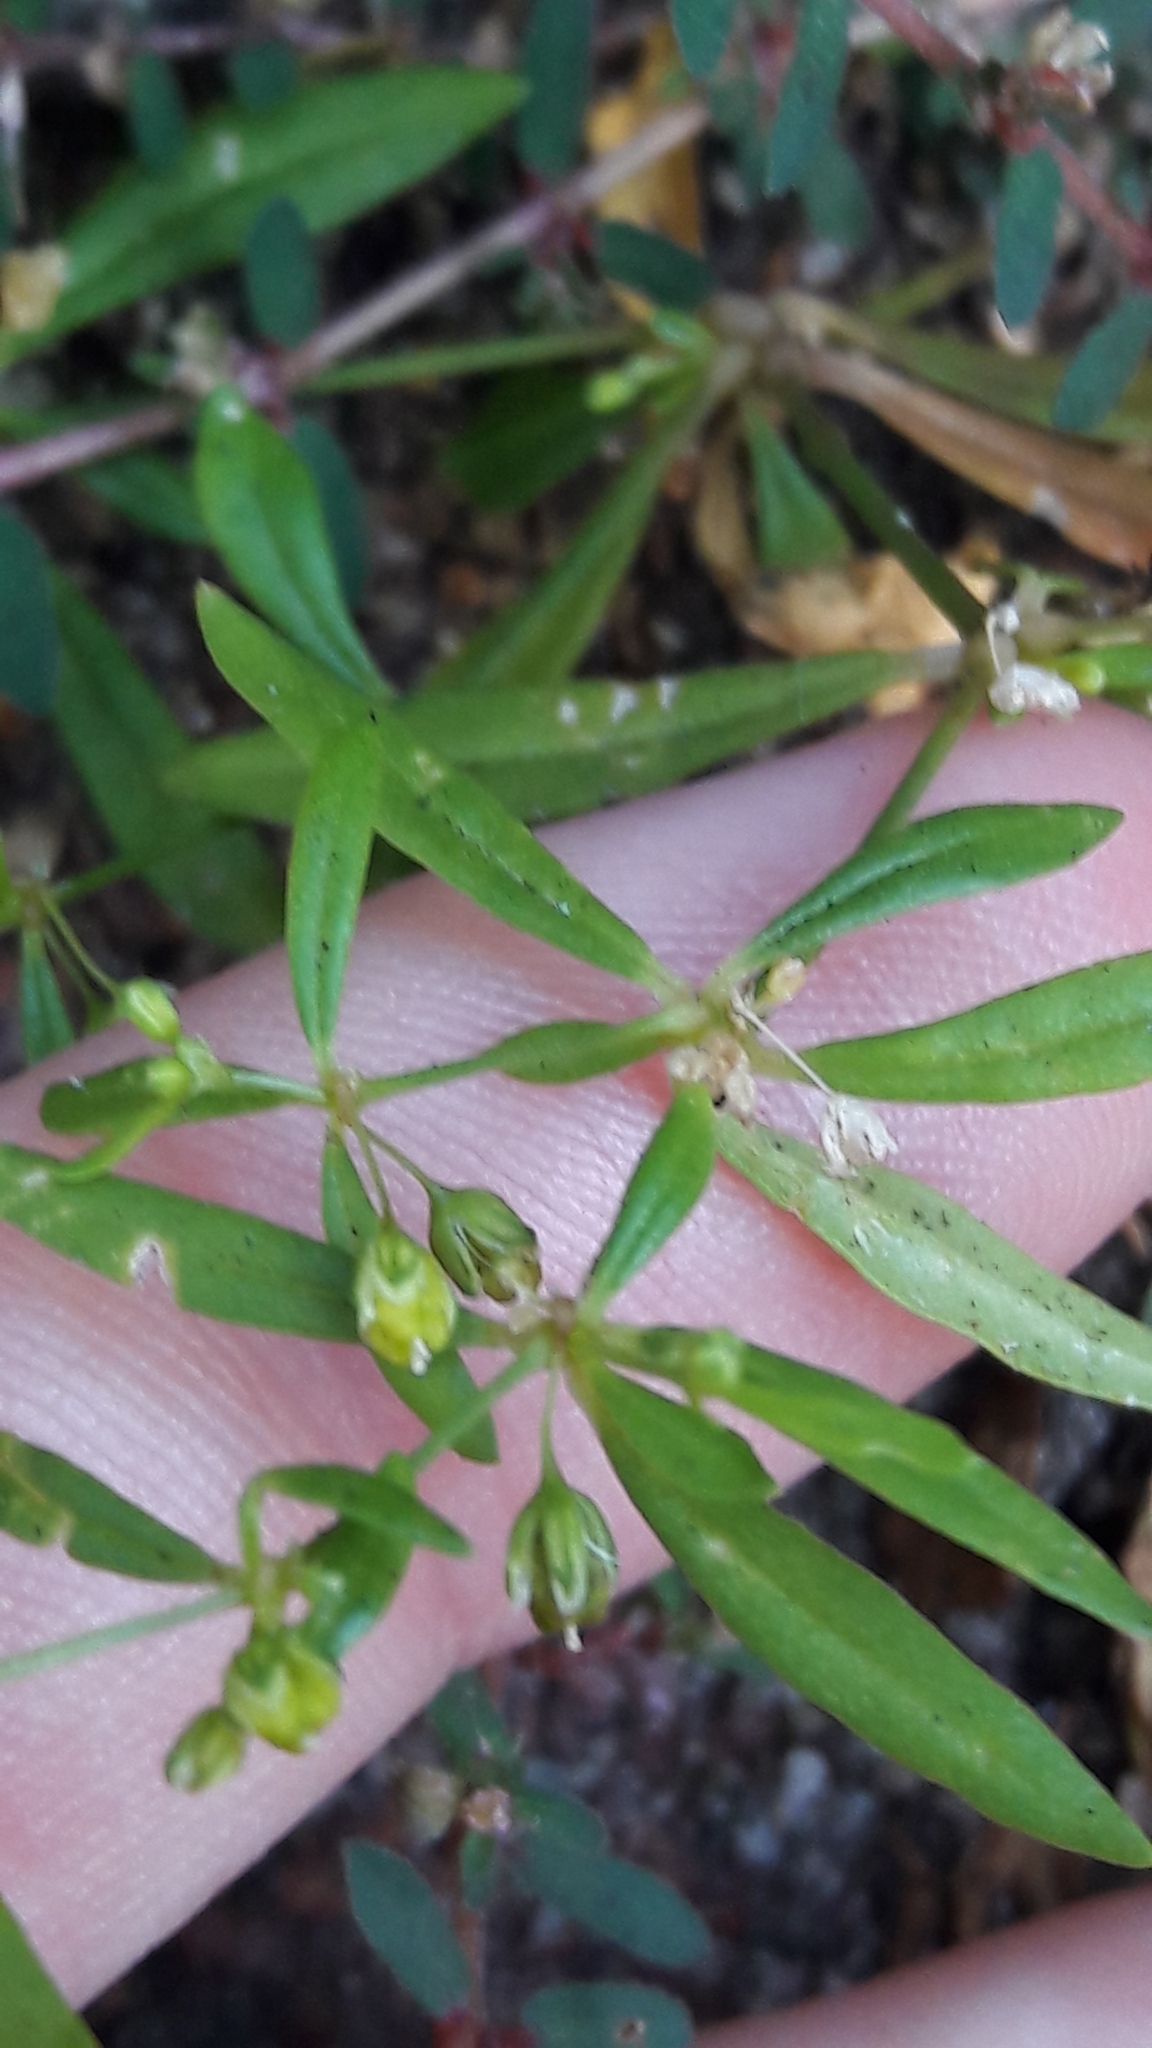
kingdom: Plantae
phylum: Tracheophyta
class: Magnoliopsida
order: Caryophyllales
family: Molluginaceae
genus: Mollugo
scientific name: Mollugo verticillata
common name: Green carpetweed
